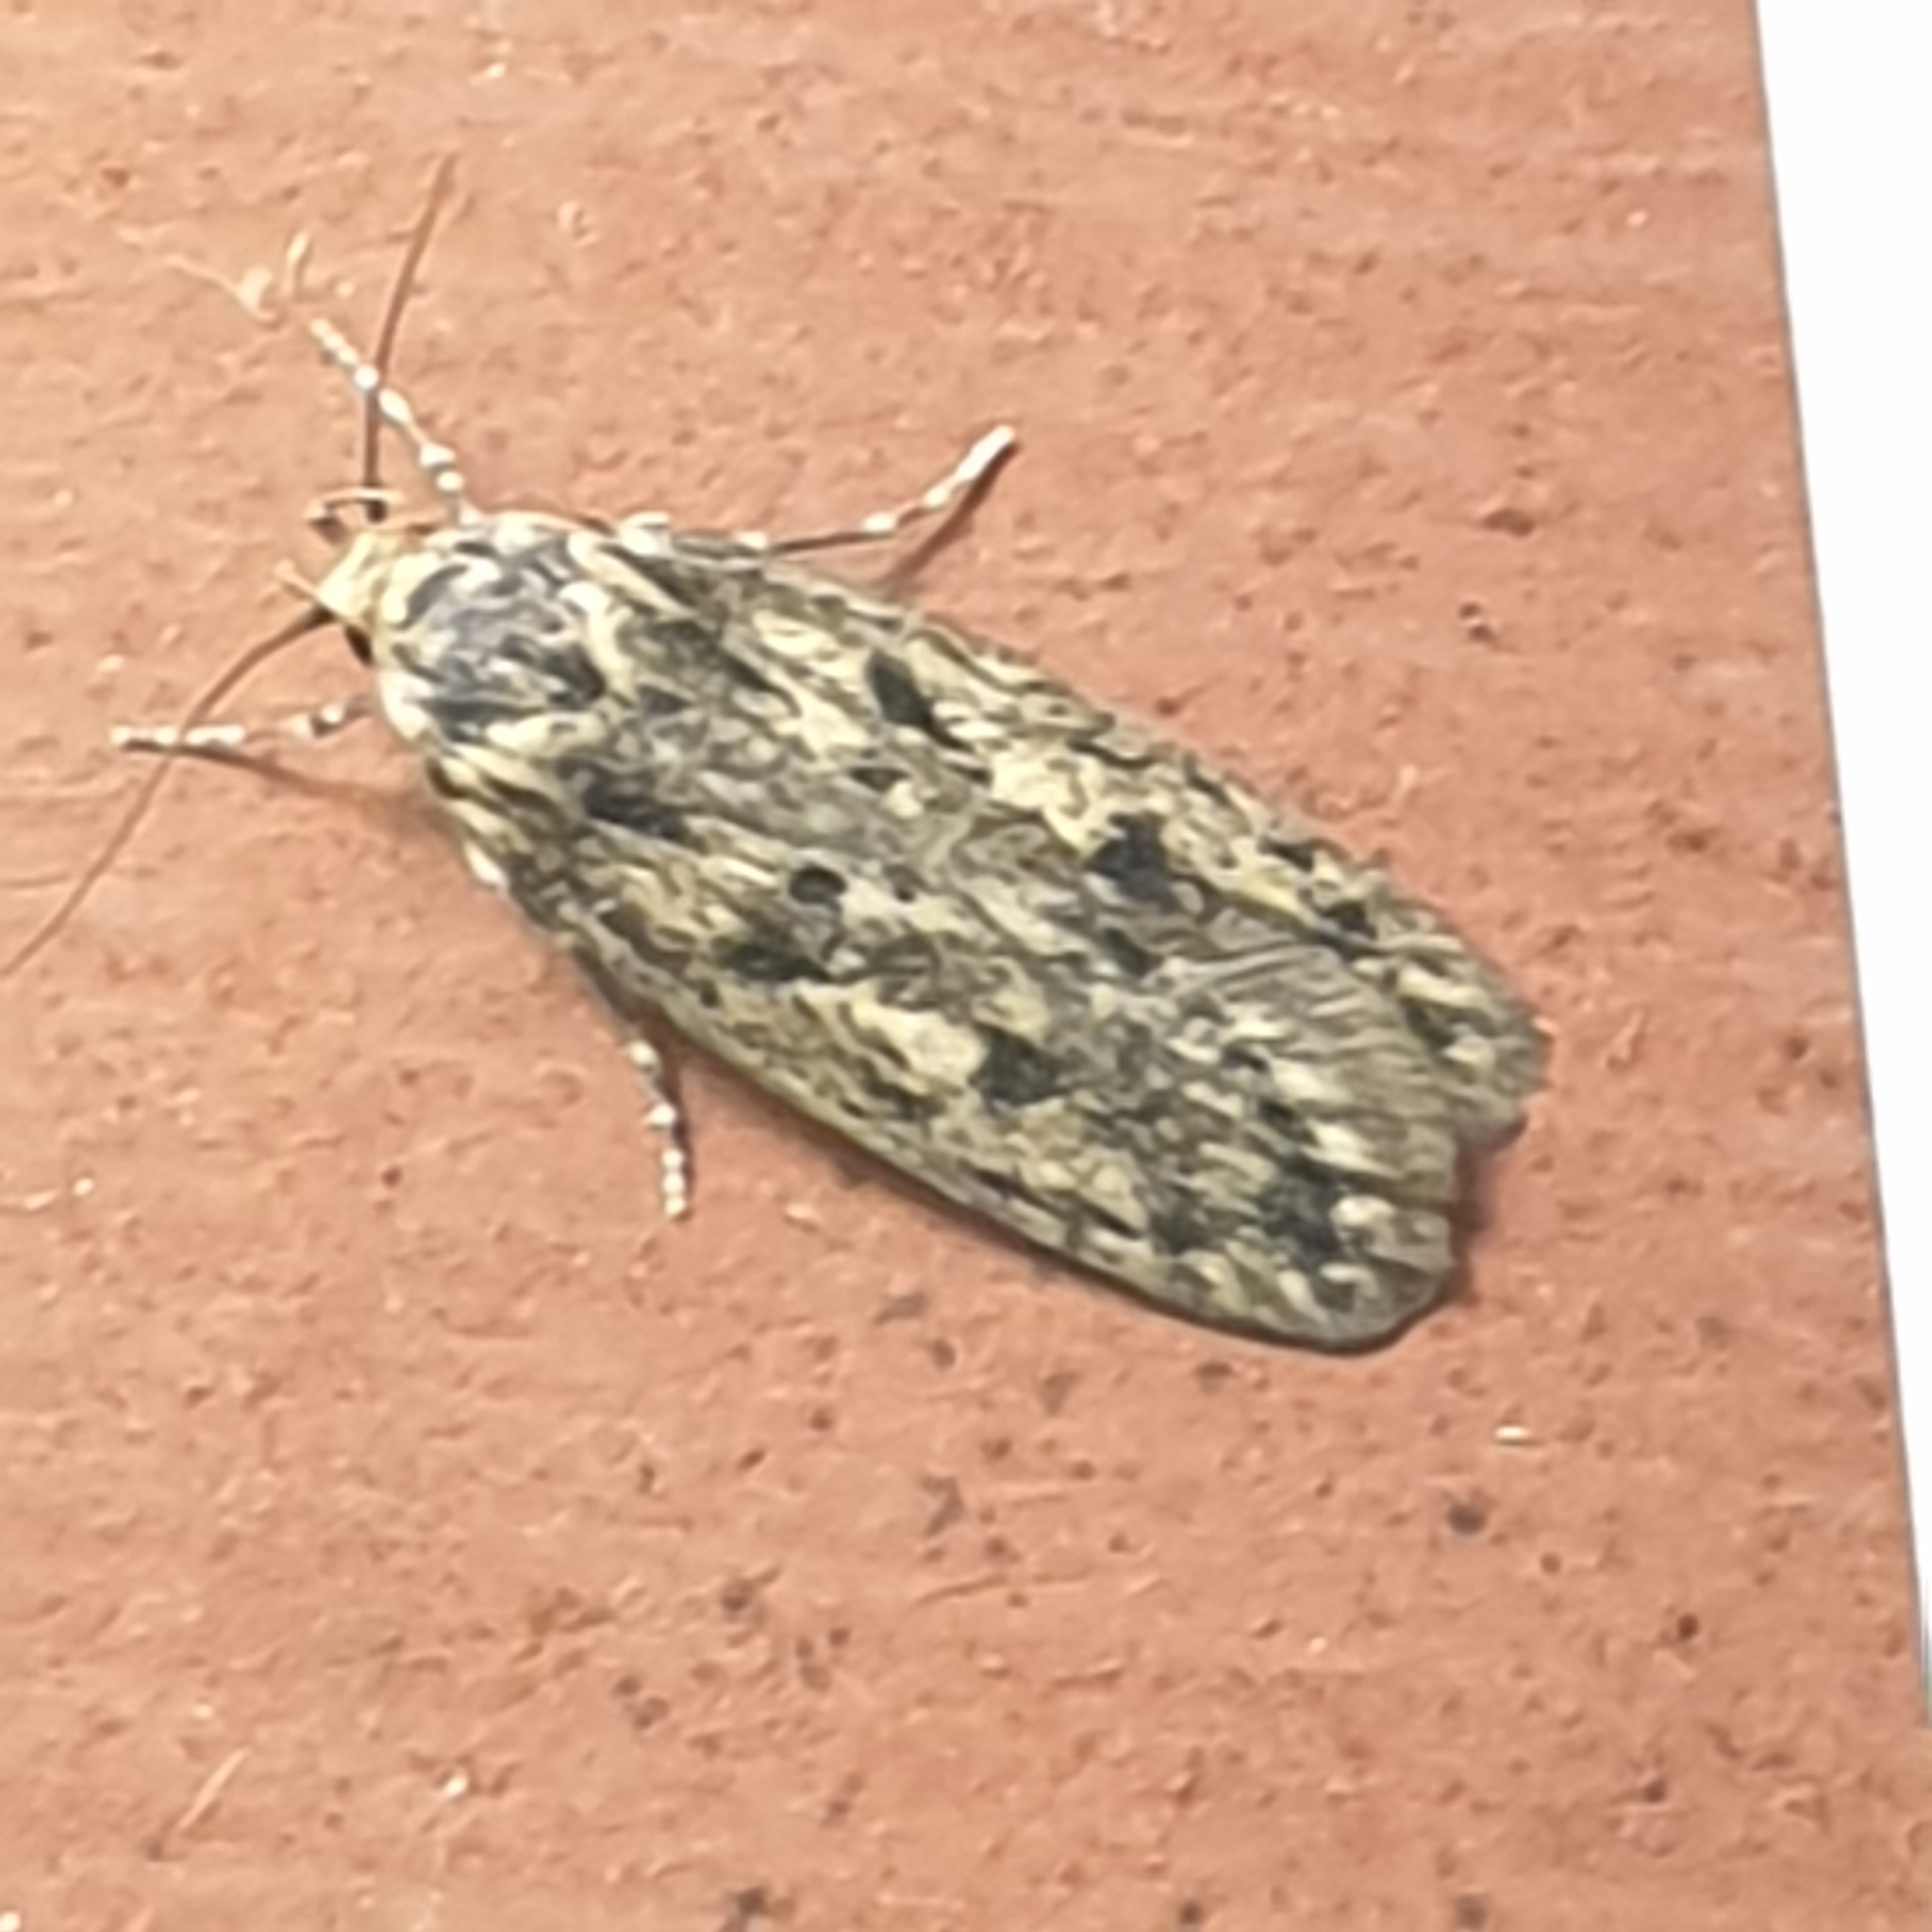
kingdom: Animalia
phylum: Arthropoda
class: Insecta
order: Lepidoptera
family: Oecophoridae
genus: Hofmannophila
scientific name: Hofmannophila pseudospretella
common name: Brown house moth
